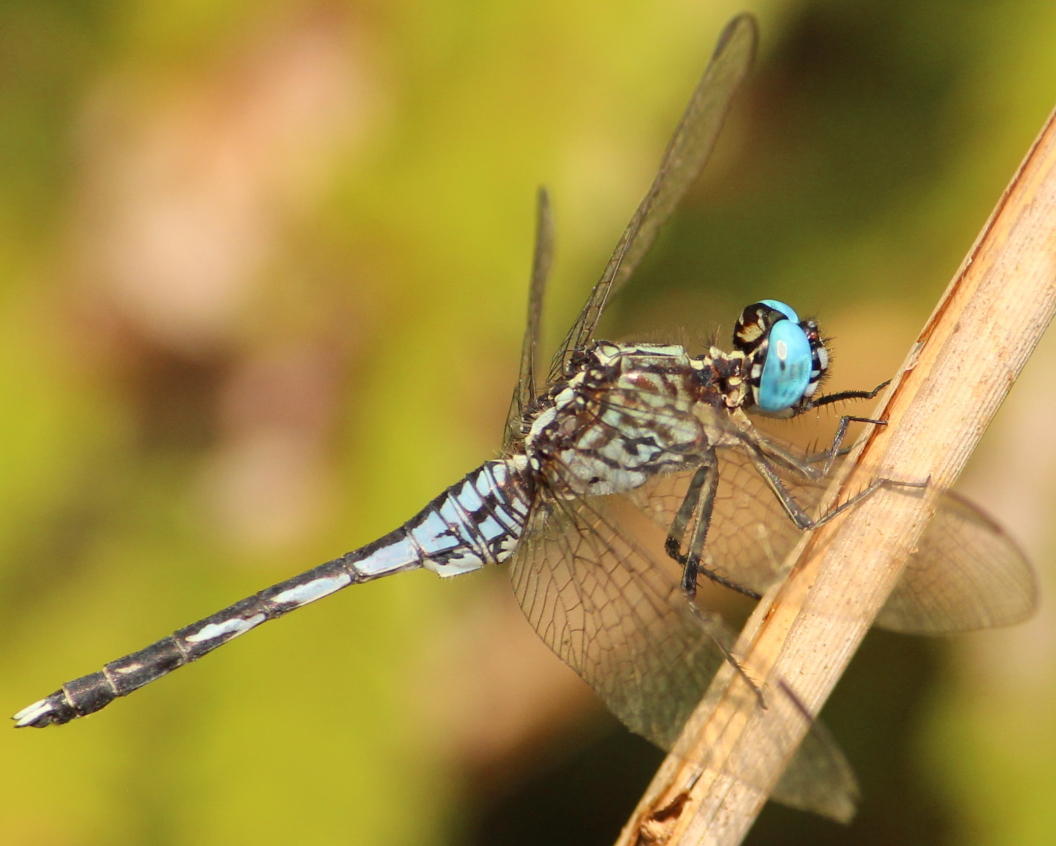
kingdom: Animalia
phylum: Arthropoda
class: Insecta
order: Odonata
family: Libellulidae
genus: Acisoma
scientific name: Acisoma variegatum
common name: Slender pintail
